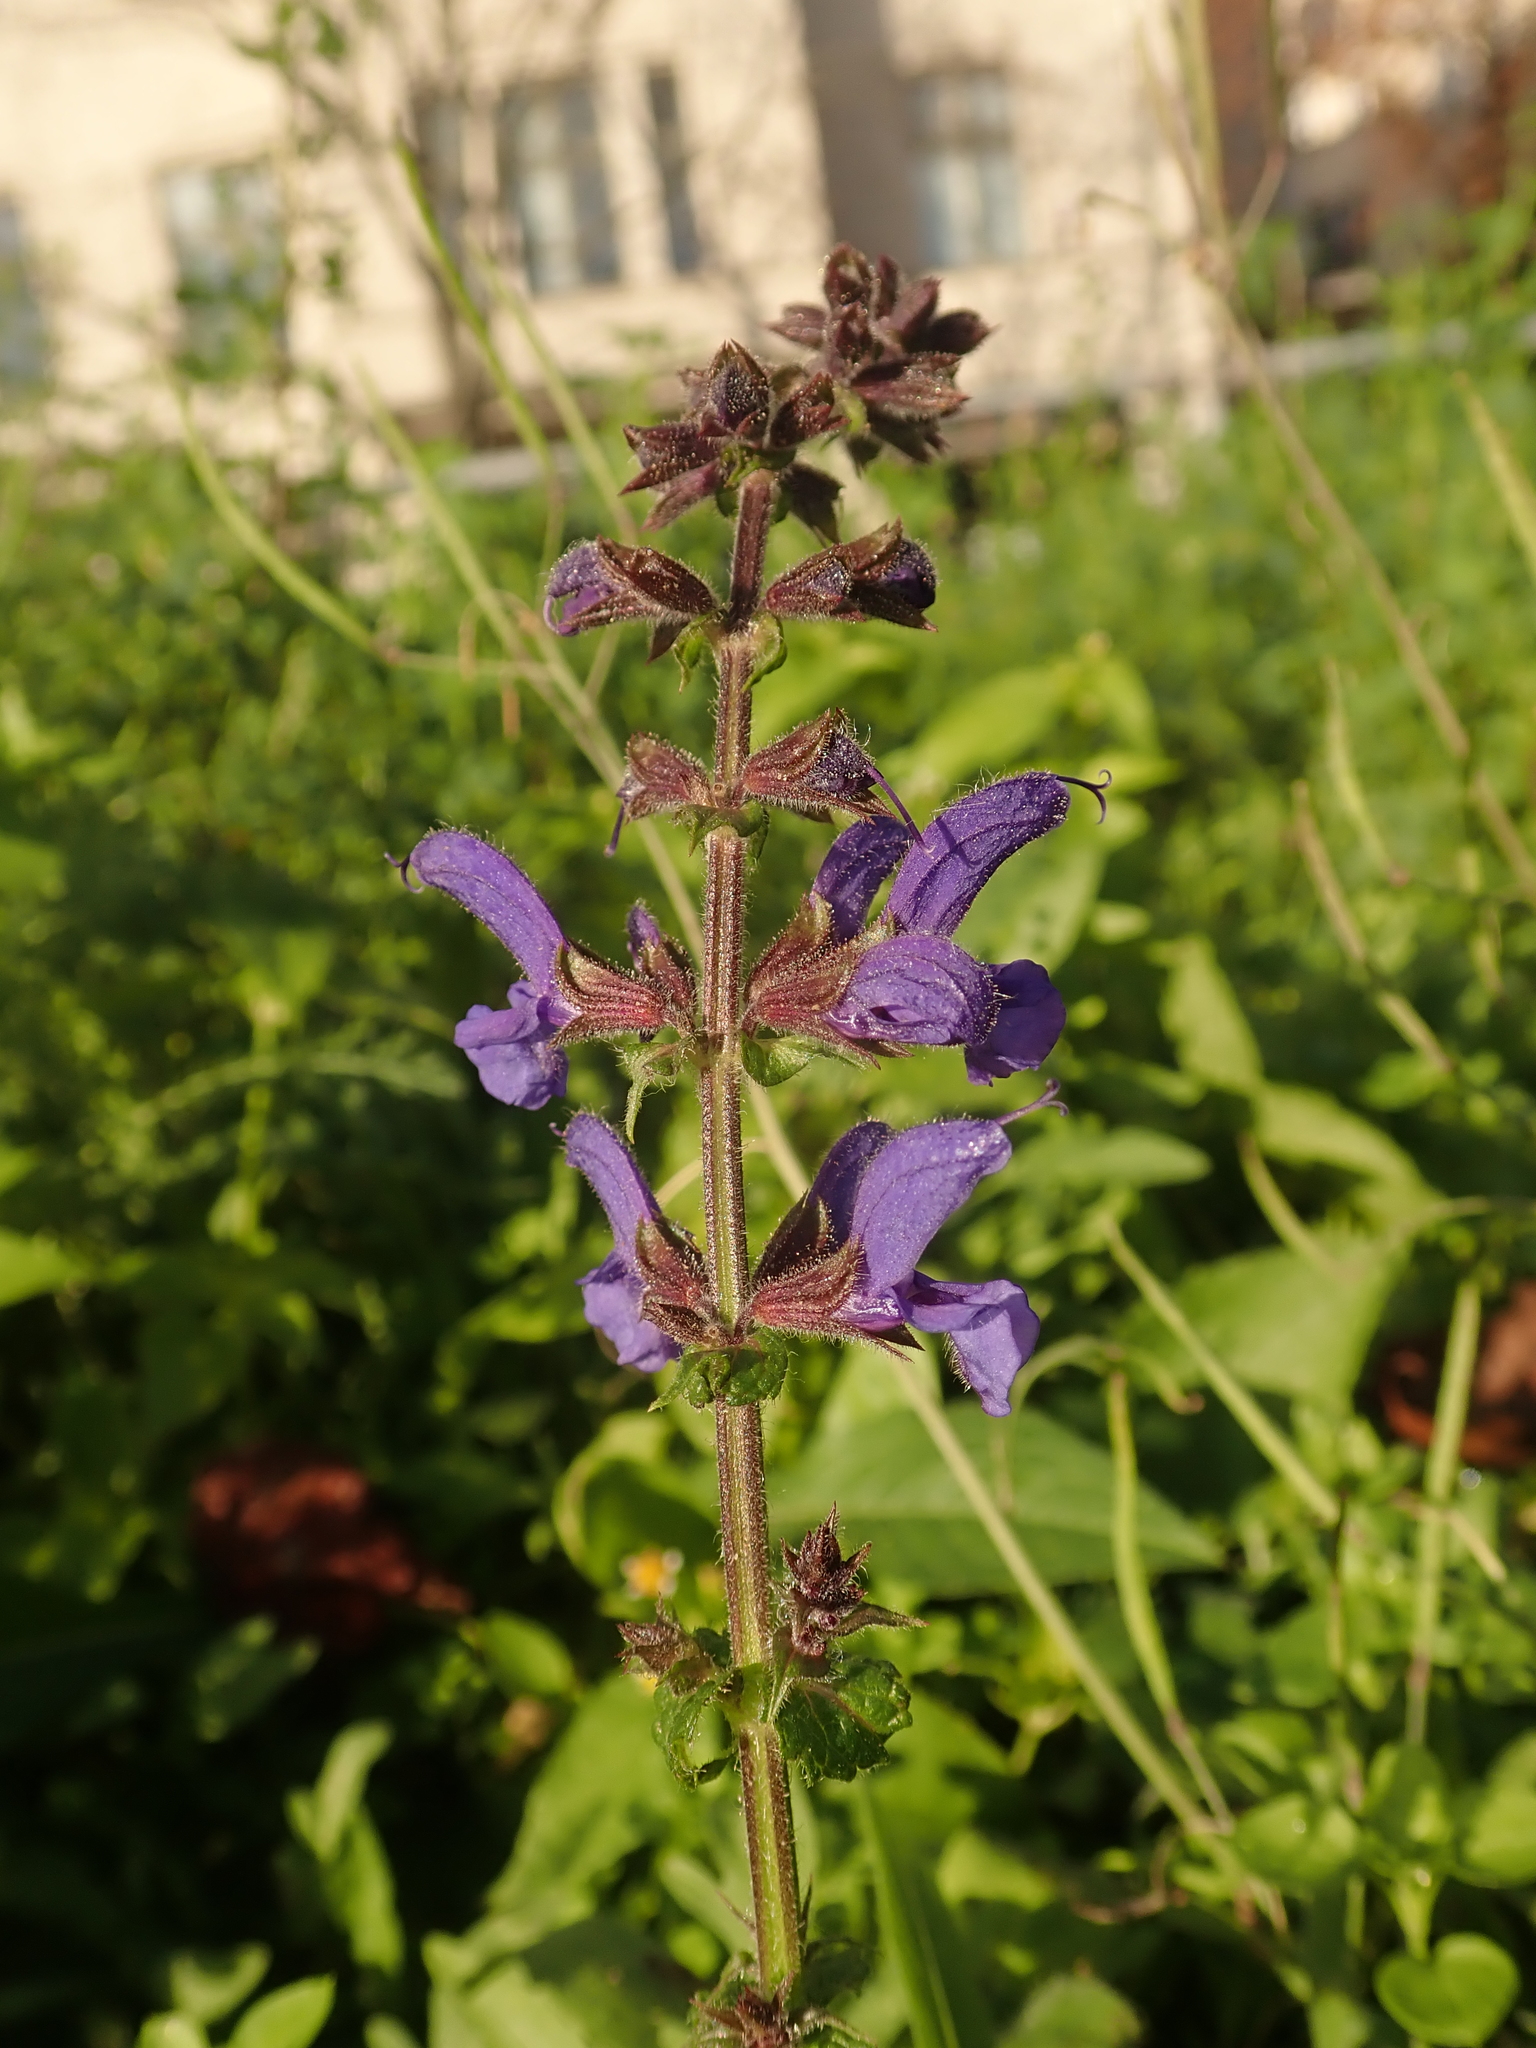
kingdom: Plantae
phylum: Tracheophyta
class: Magnoliopsida
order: Lamiales
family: Lamiaceae
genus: Salvia
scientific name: Salvia pratensis
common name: Meadow sage
